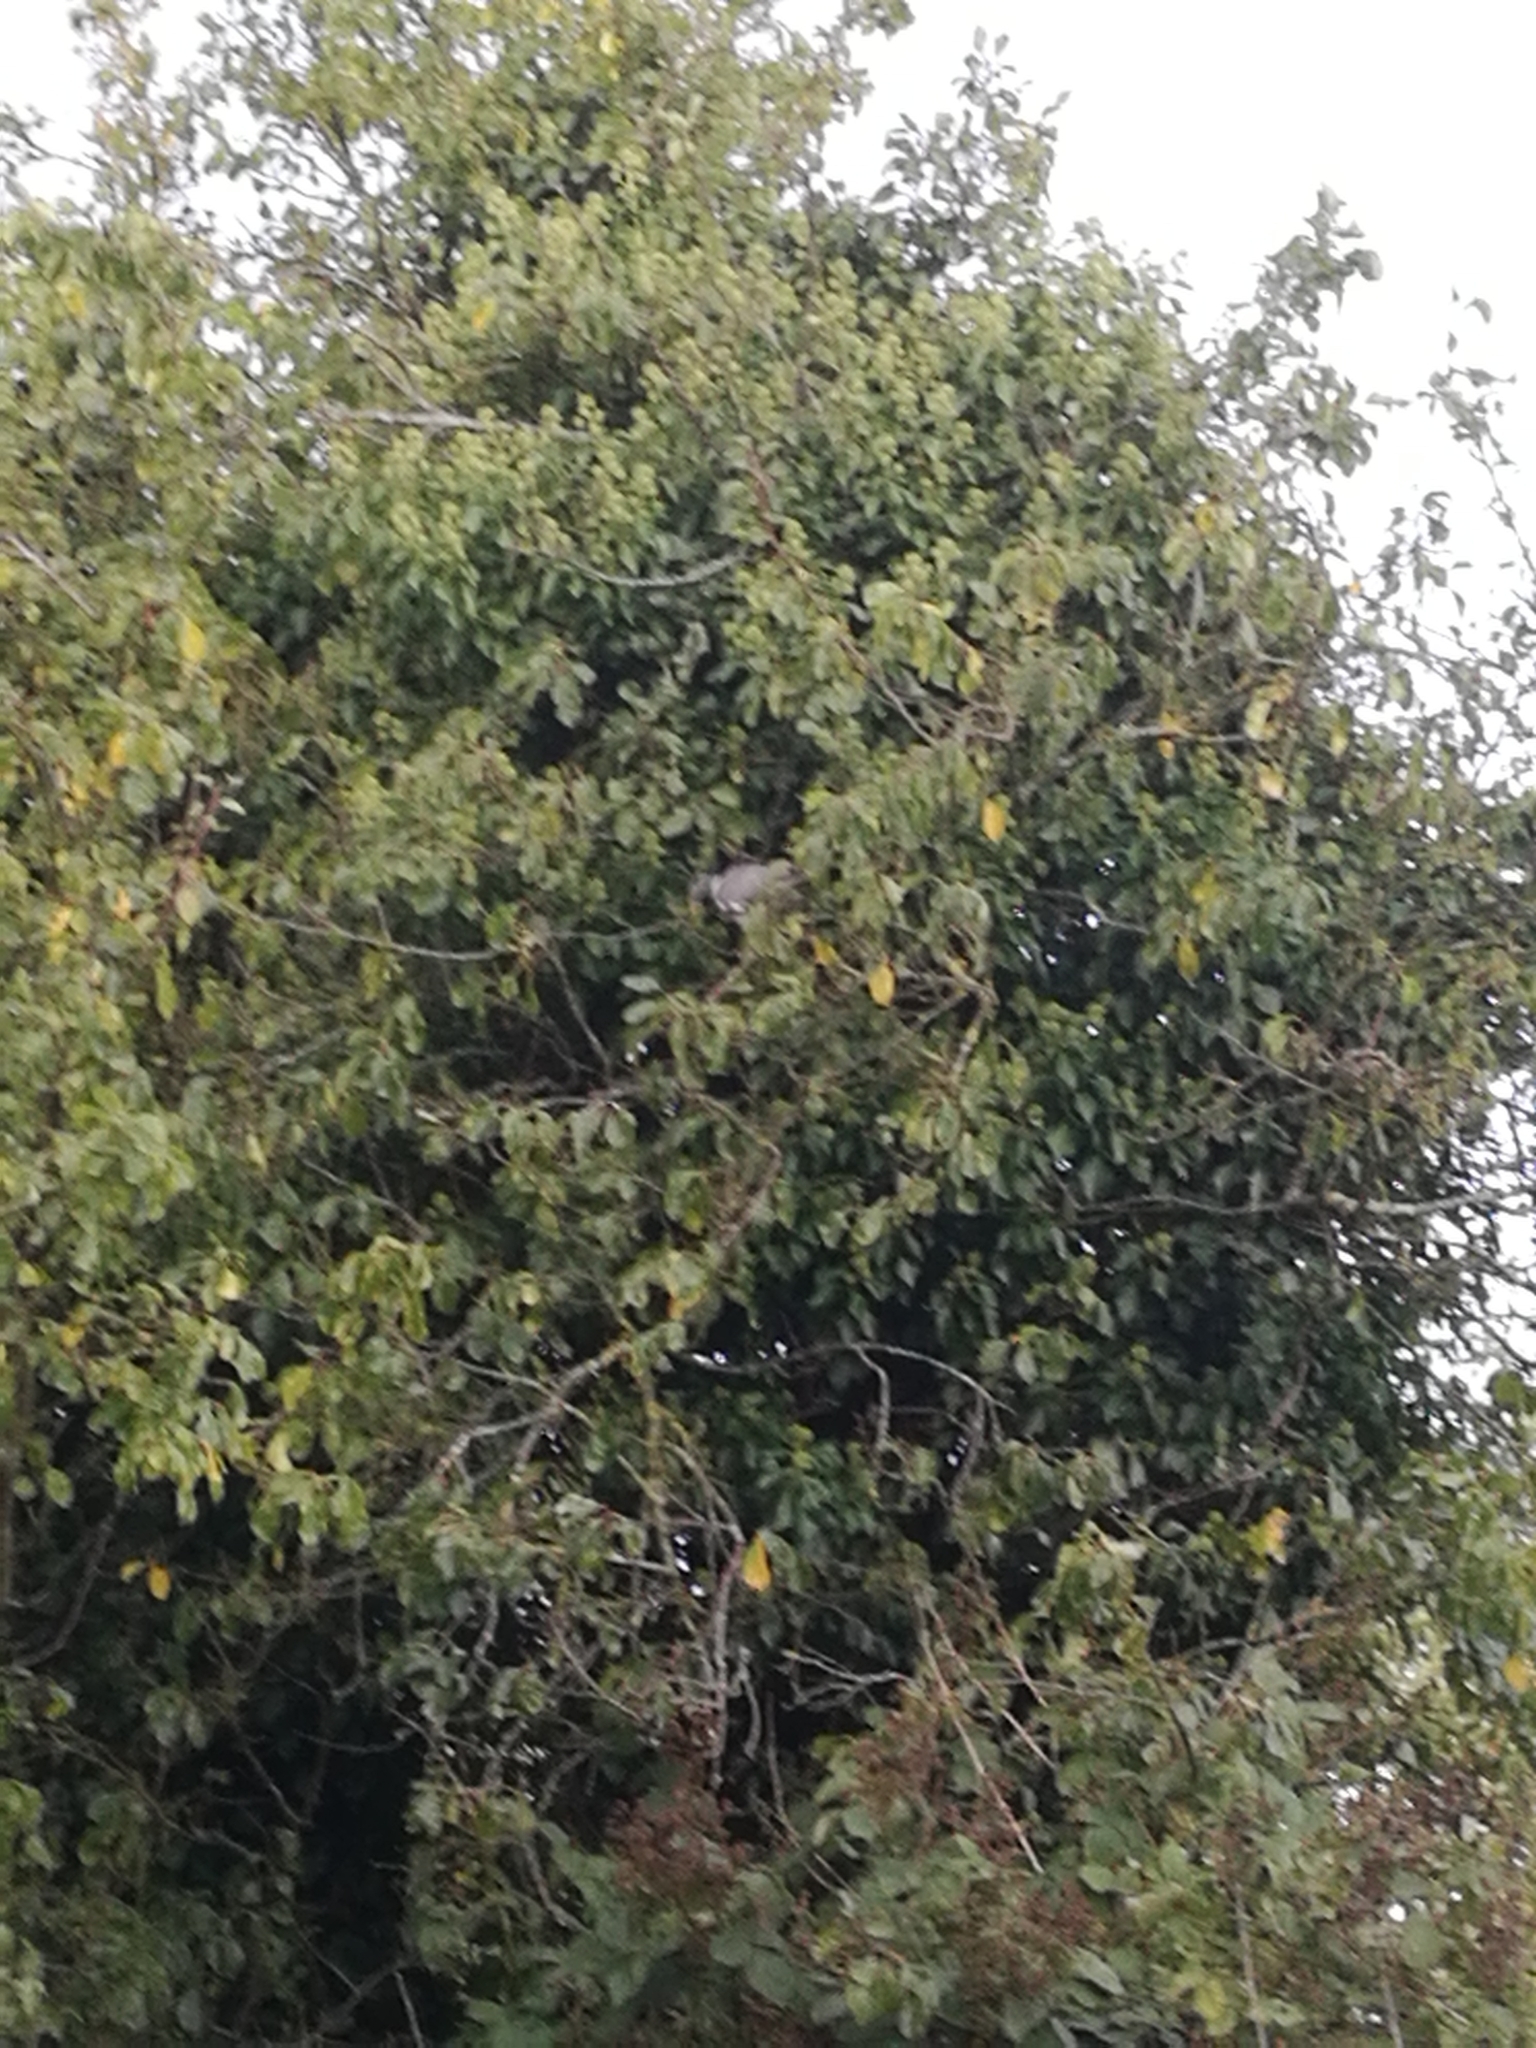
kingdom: Animalia
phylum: Chordata
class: Aves
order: Columbiformes
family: Columbidae
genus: Columba
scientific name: Columba palumbus
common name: Common wood pigeon
